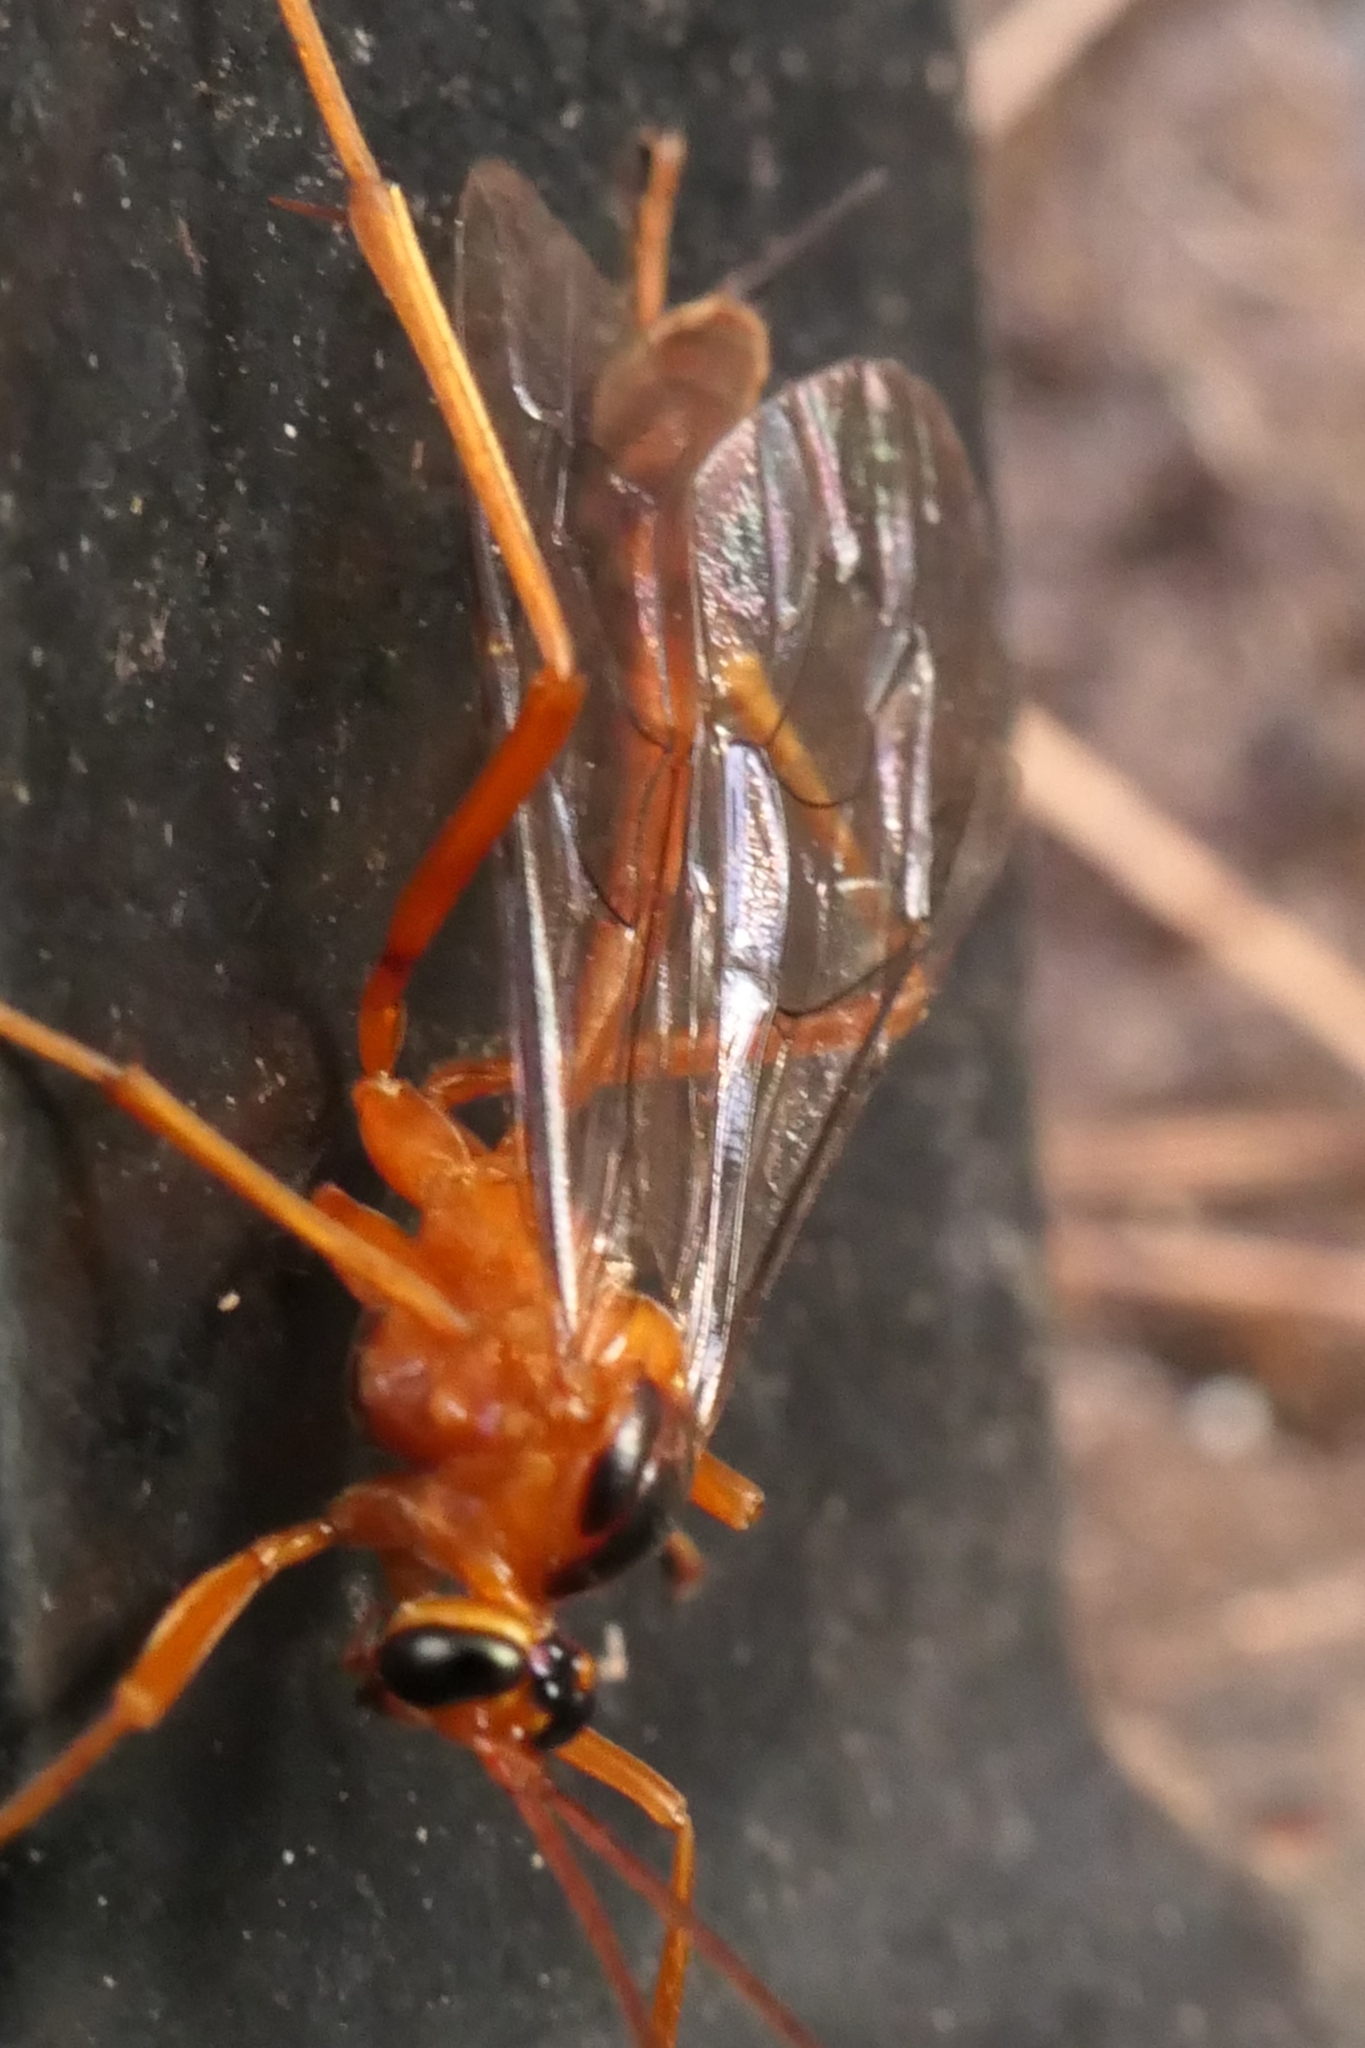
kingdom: Animalia
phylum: Arthropoda
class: Insecta
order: Hymenoptera
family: Ichneumonidae
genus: Netelia
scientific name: Netelia ephippiata
